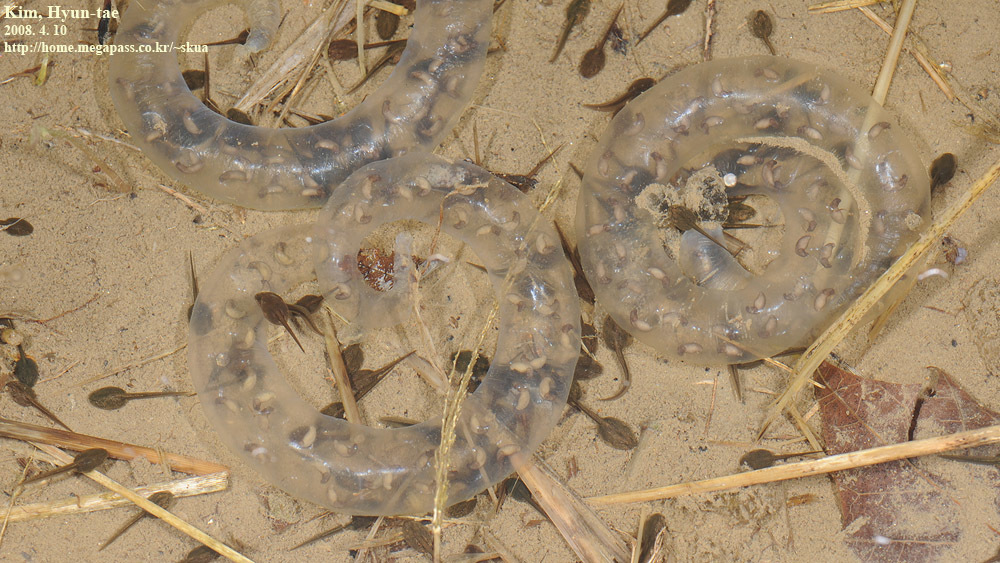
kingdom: Animalia
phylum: Chordata
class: Amphibia
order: Caudata
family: Hynobiidae
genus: Hynobius
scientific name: Hynobius leechii
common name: Gensan salamander
